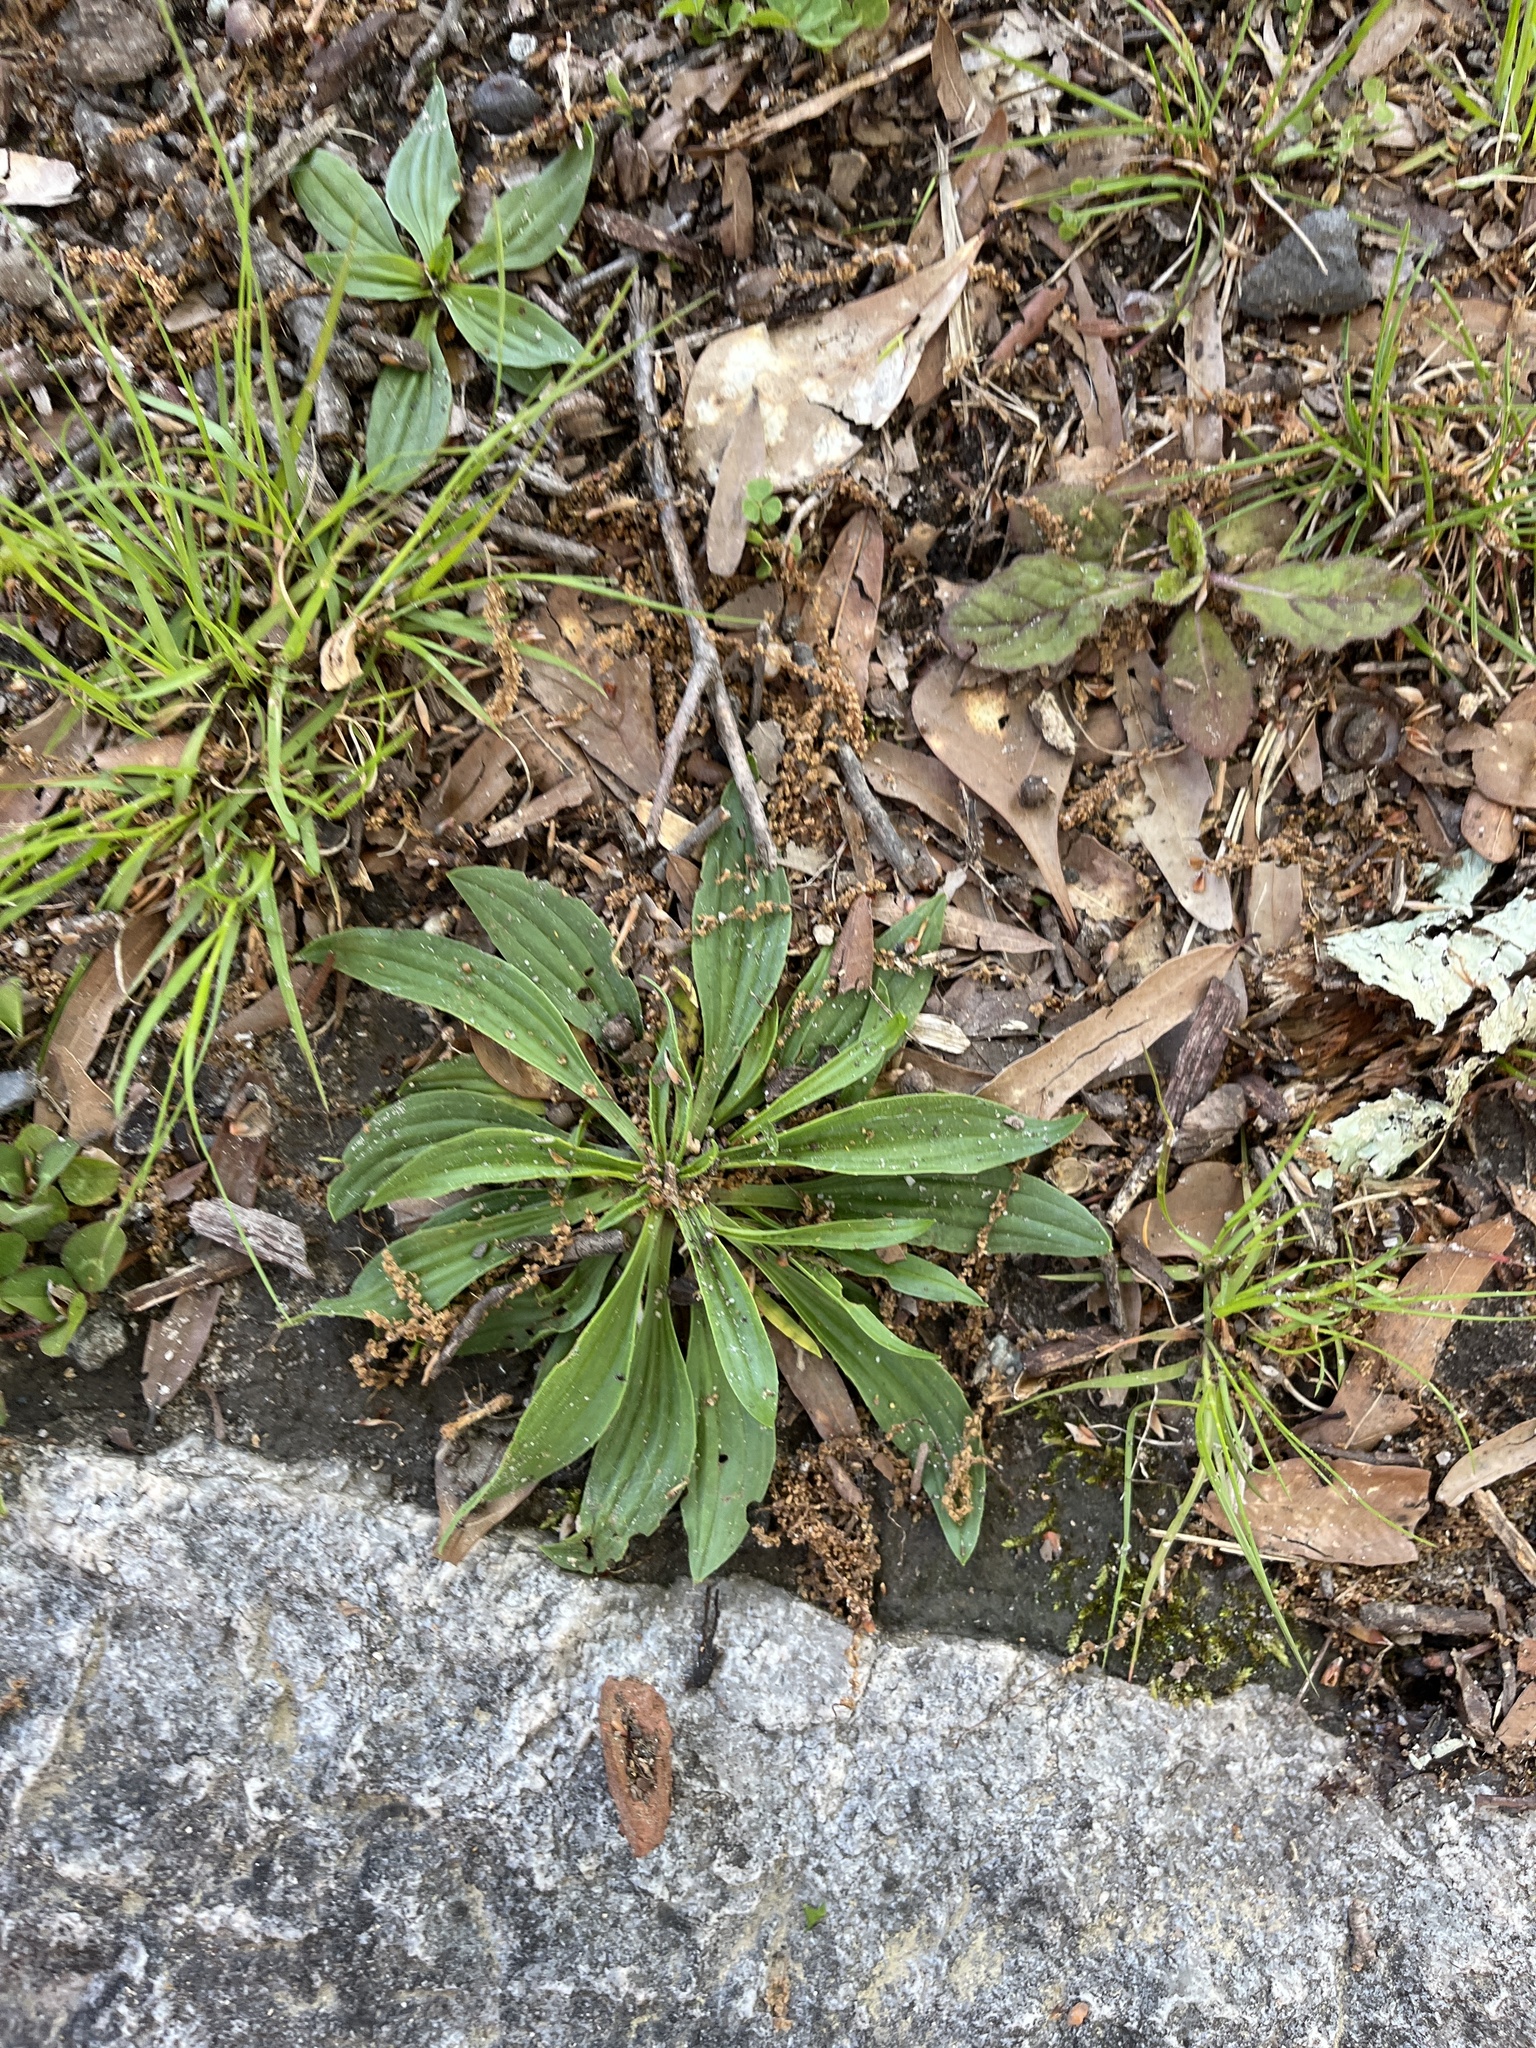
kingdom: Plantae
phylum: Tracheophyta
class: Magnoliopsida
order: Lamiales
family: Plantaginaceae
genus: Plantago
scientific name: Plantago lanceolata
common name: Ribwort plantain
